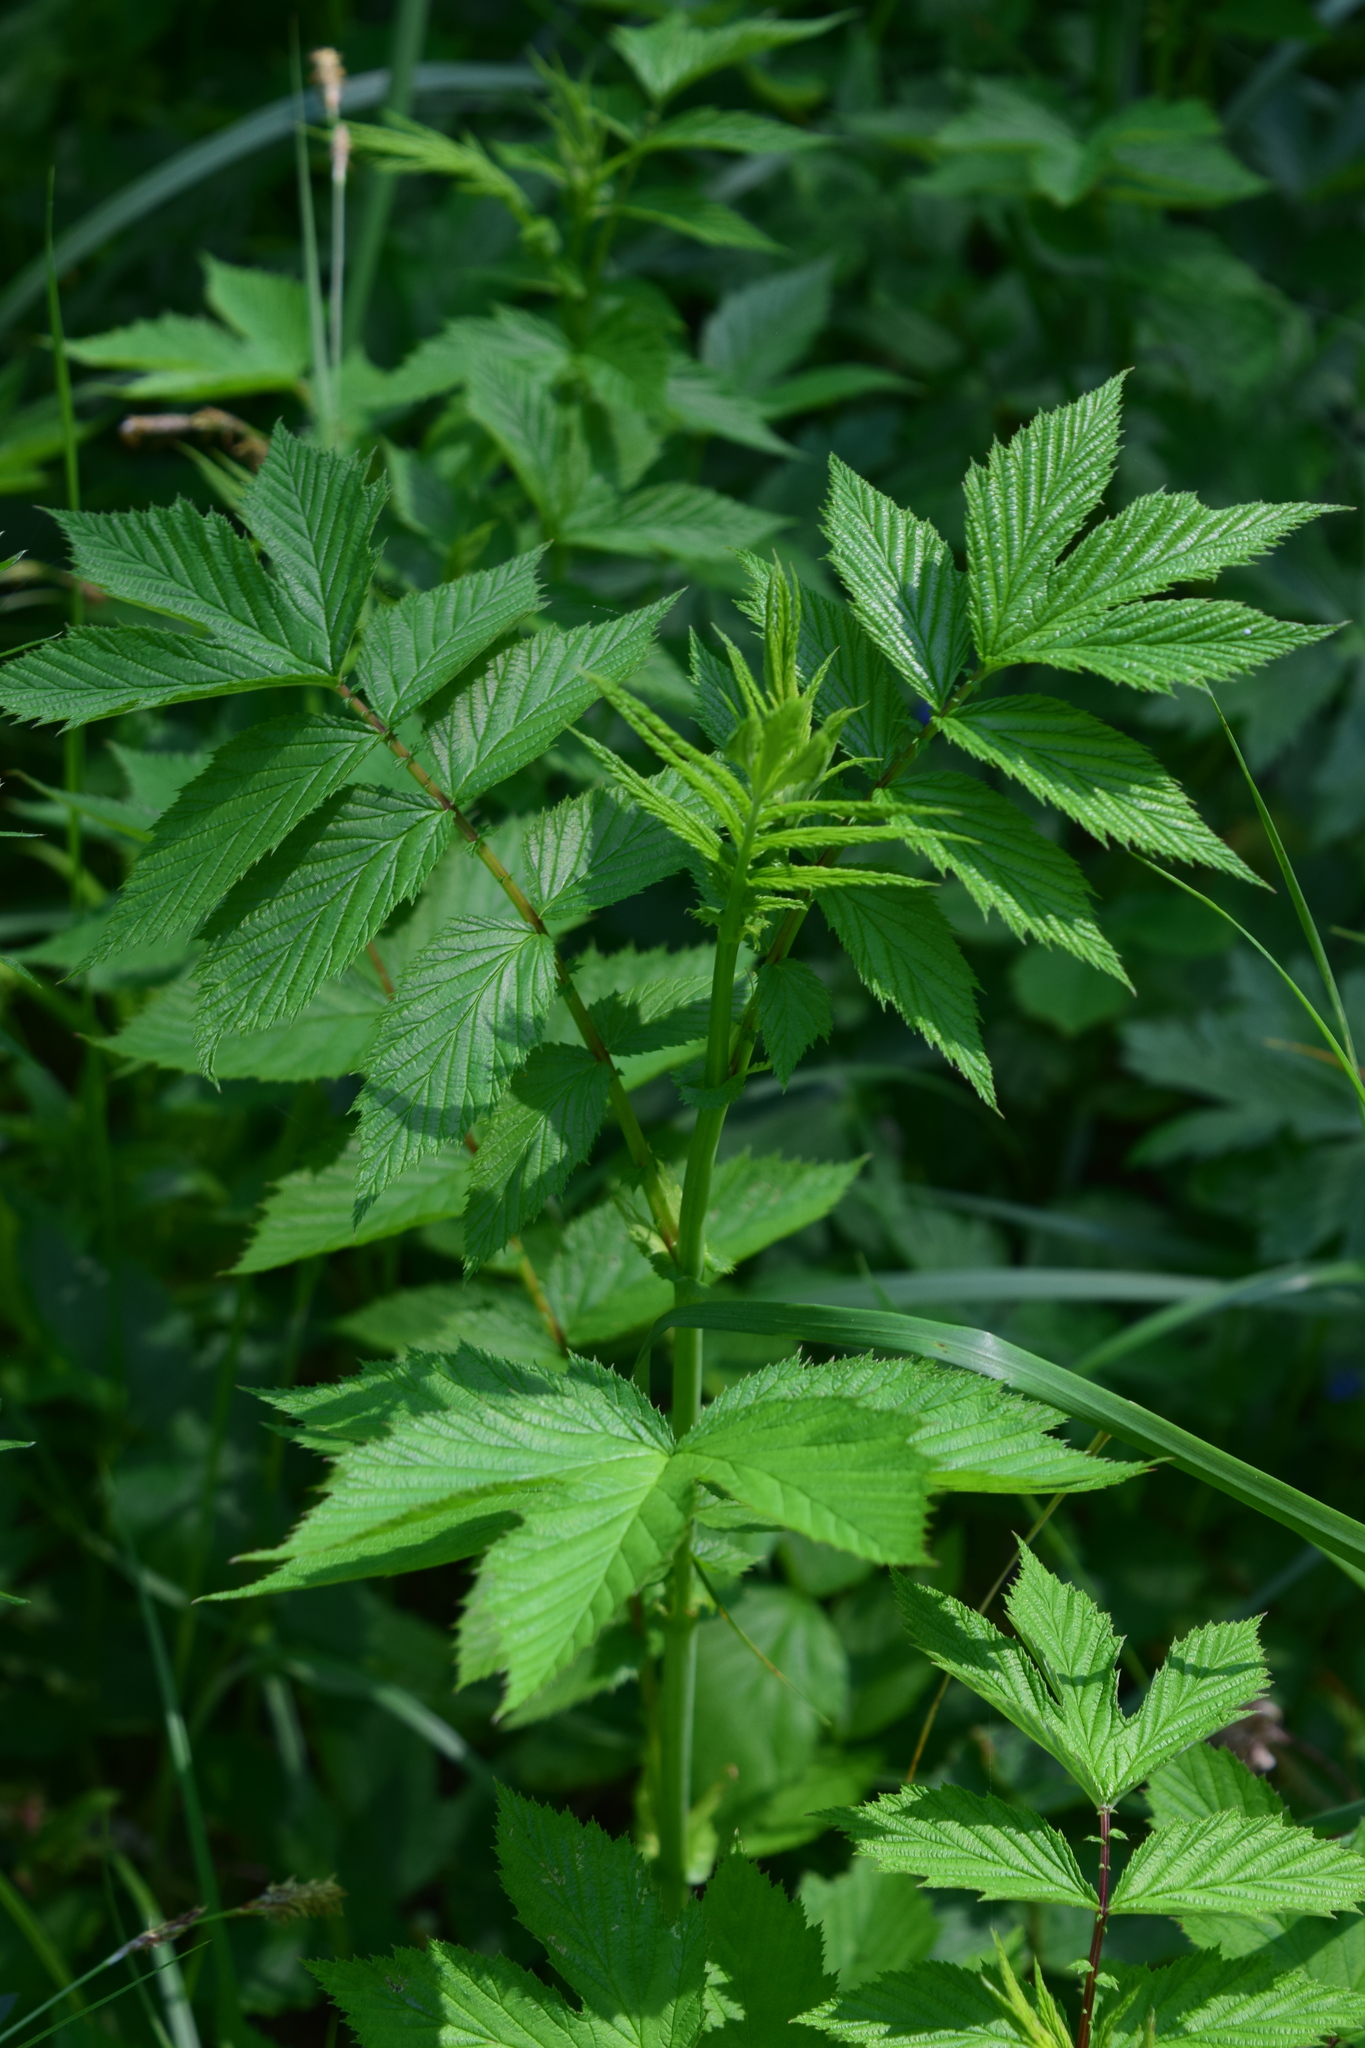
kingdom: Plantae
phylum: Tracheophyta
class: Magnoliopsida
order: Rosales
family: Rosaceae
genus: Filipendula
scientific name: Filipendula ulmaria
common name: Meadowsweet
